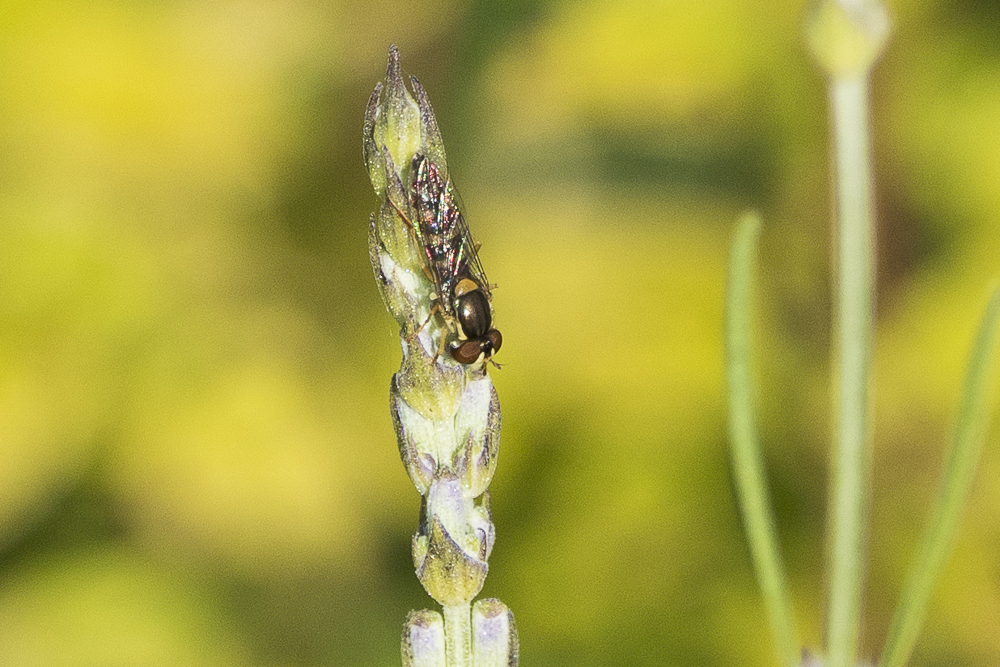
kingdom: Animalia
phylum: Arthropoda
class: Insecta
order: Diptera
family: Syrphidae
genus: Sphaerophoria
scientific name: Sphaerophoria
